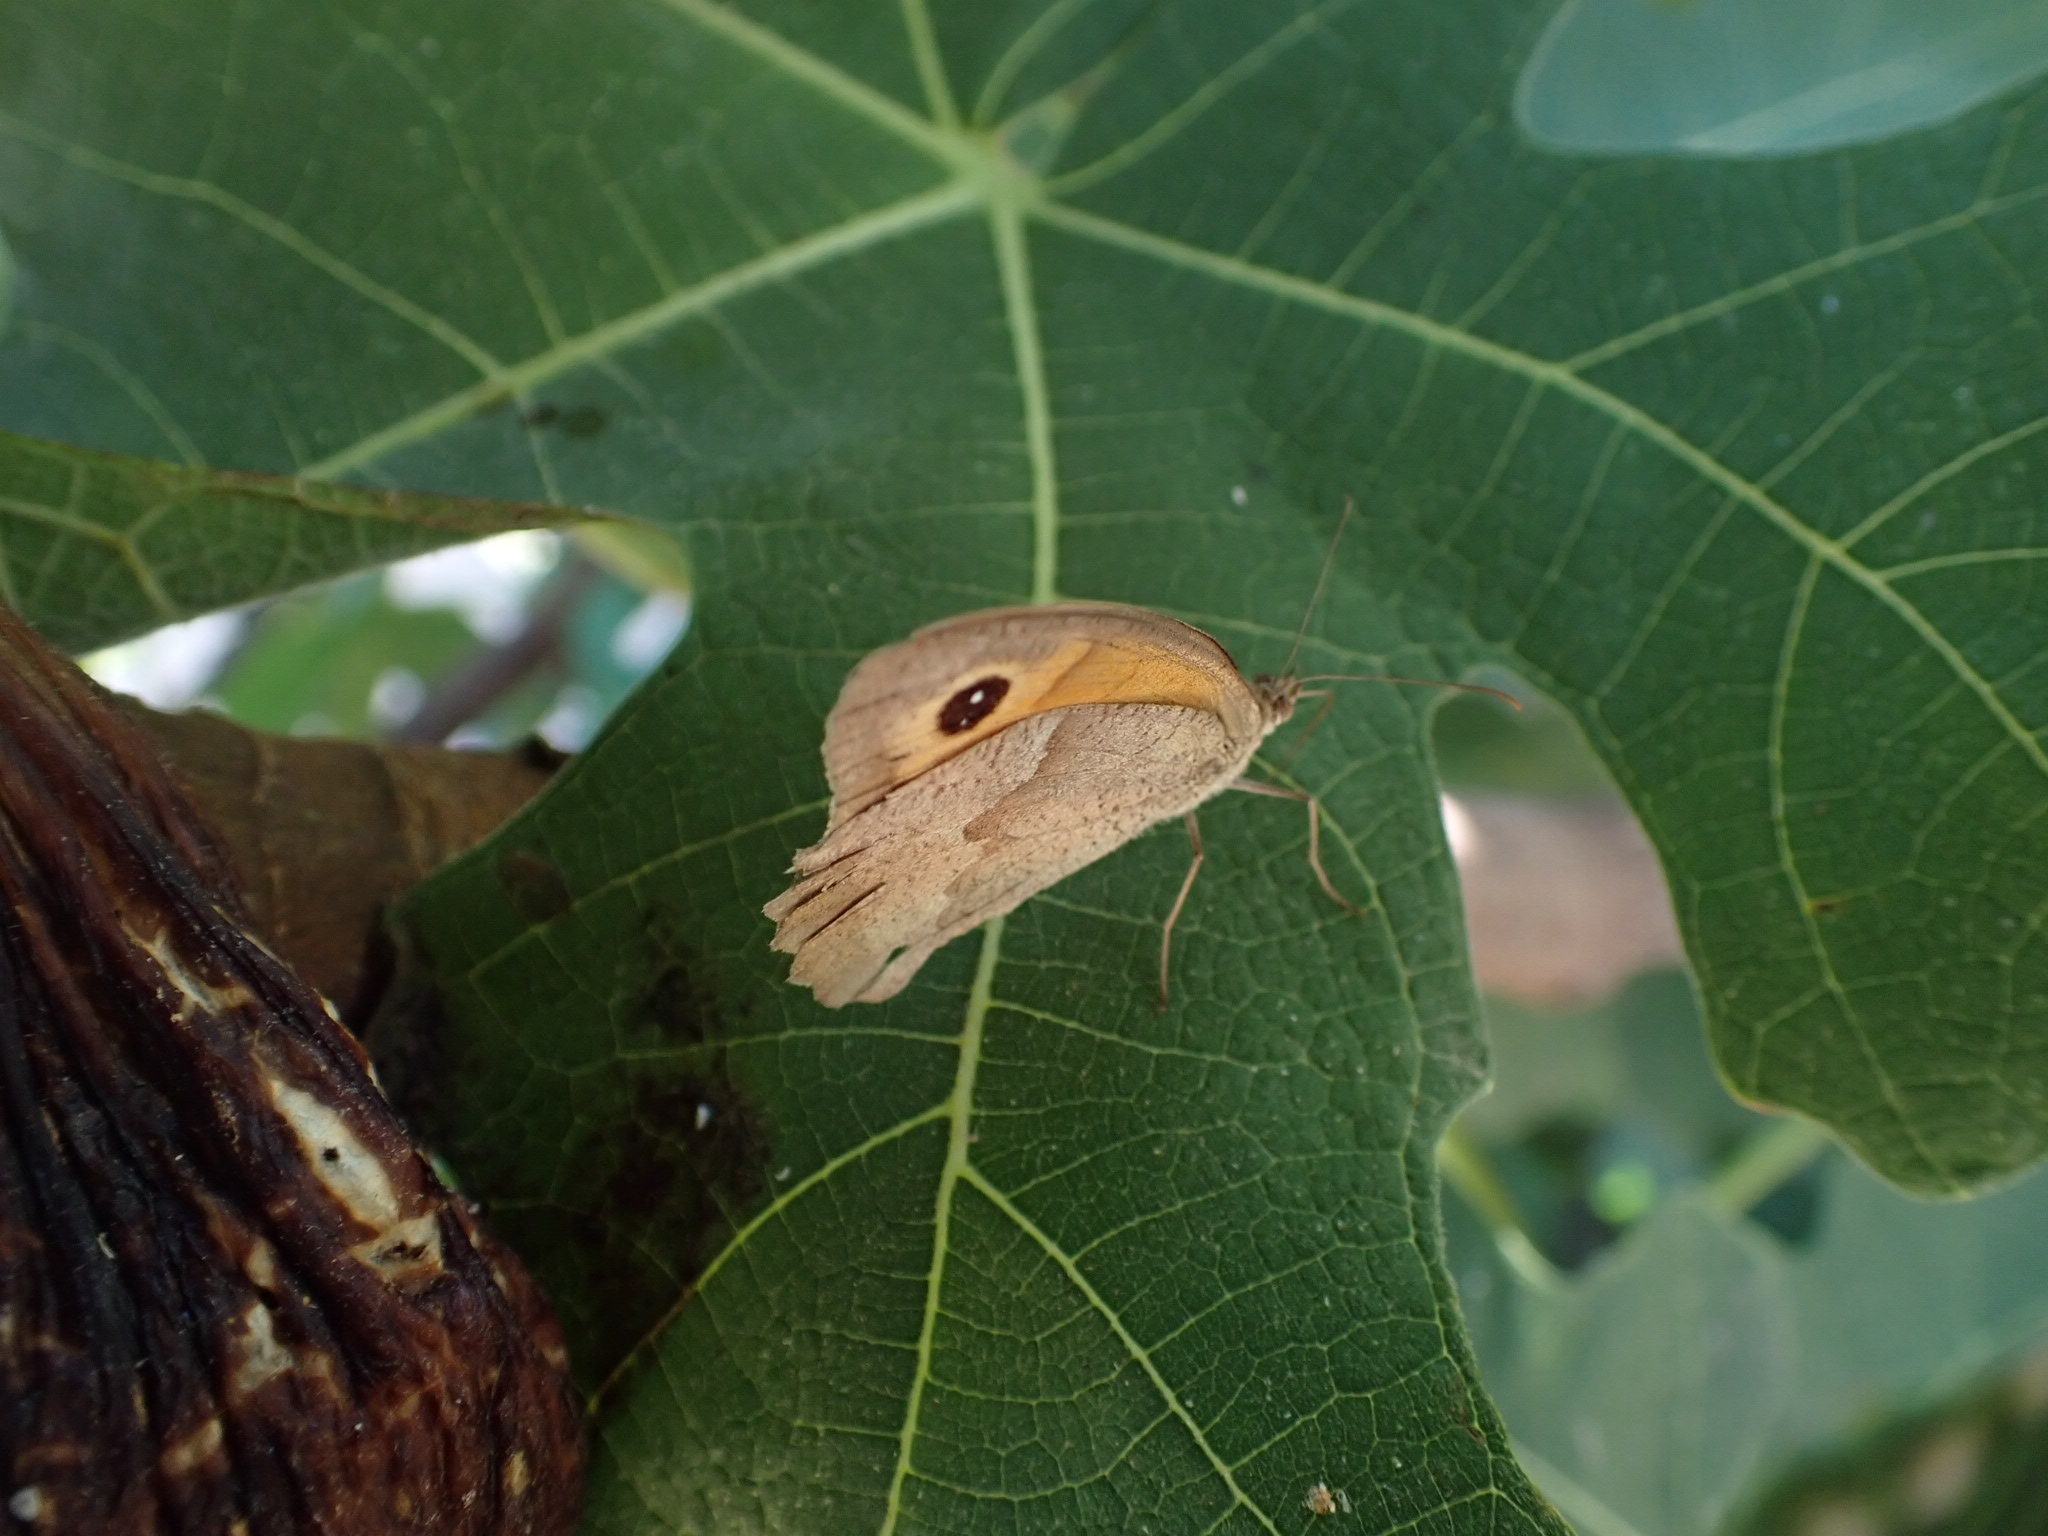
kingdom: Animalia
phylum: Arthropoda
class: Insecta
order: Lepidoptera
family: Nymphalidae
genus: Maniola
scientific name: Maniola jurtina
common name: Meadow brown
